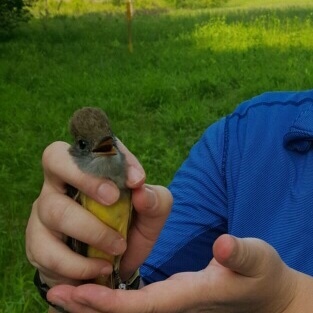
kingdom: Animalia
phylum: Chordata
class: Aves
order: Passeriformes
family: Tyrannidae
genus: Myiarchus
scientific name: Myiarchus crinitus
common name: Great crested flycatcher
